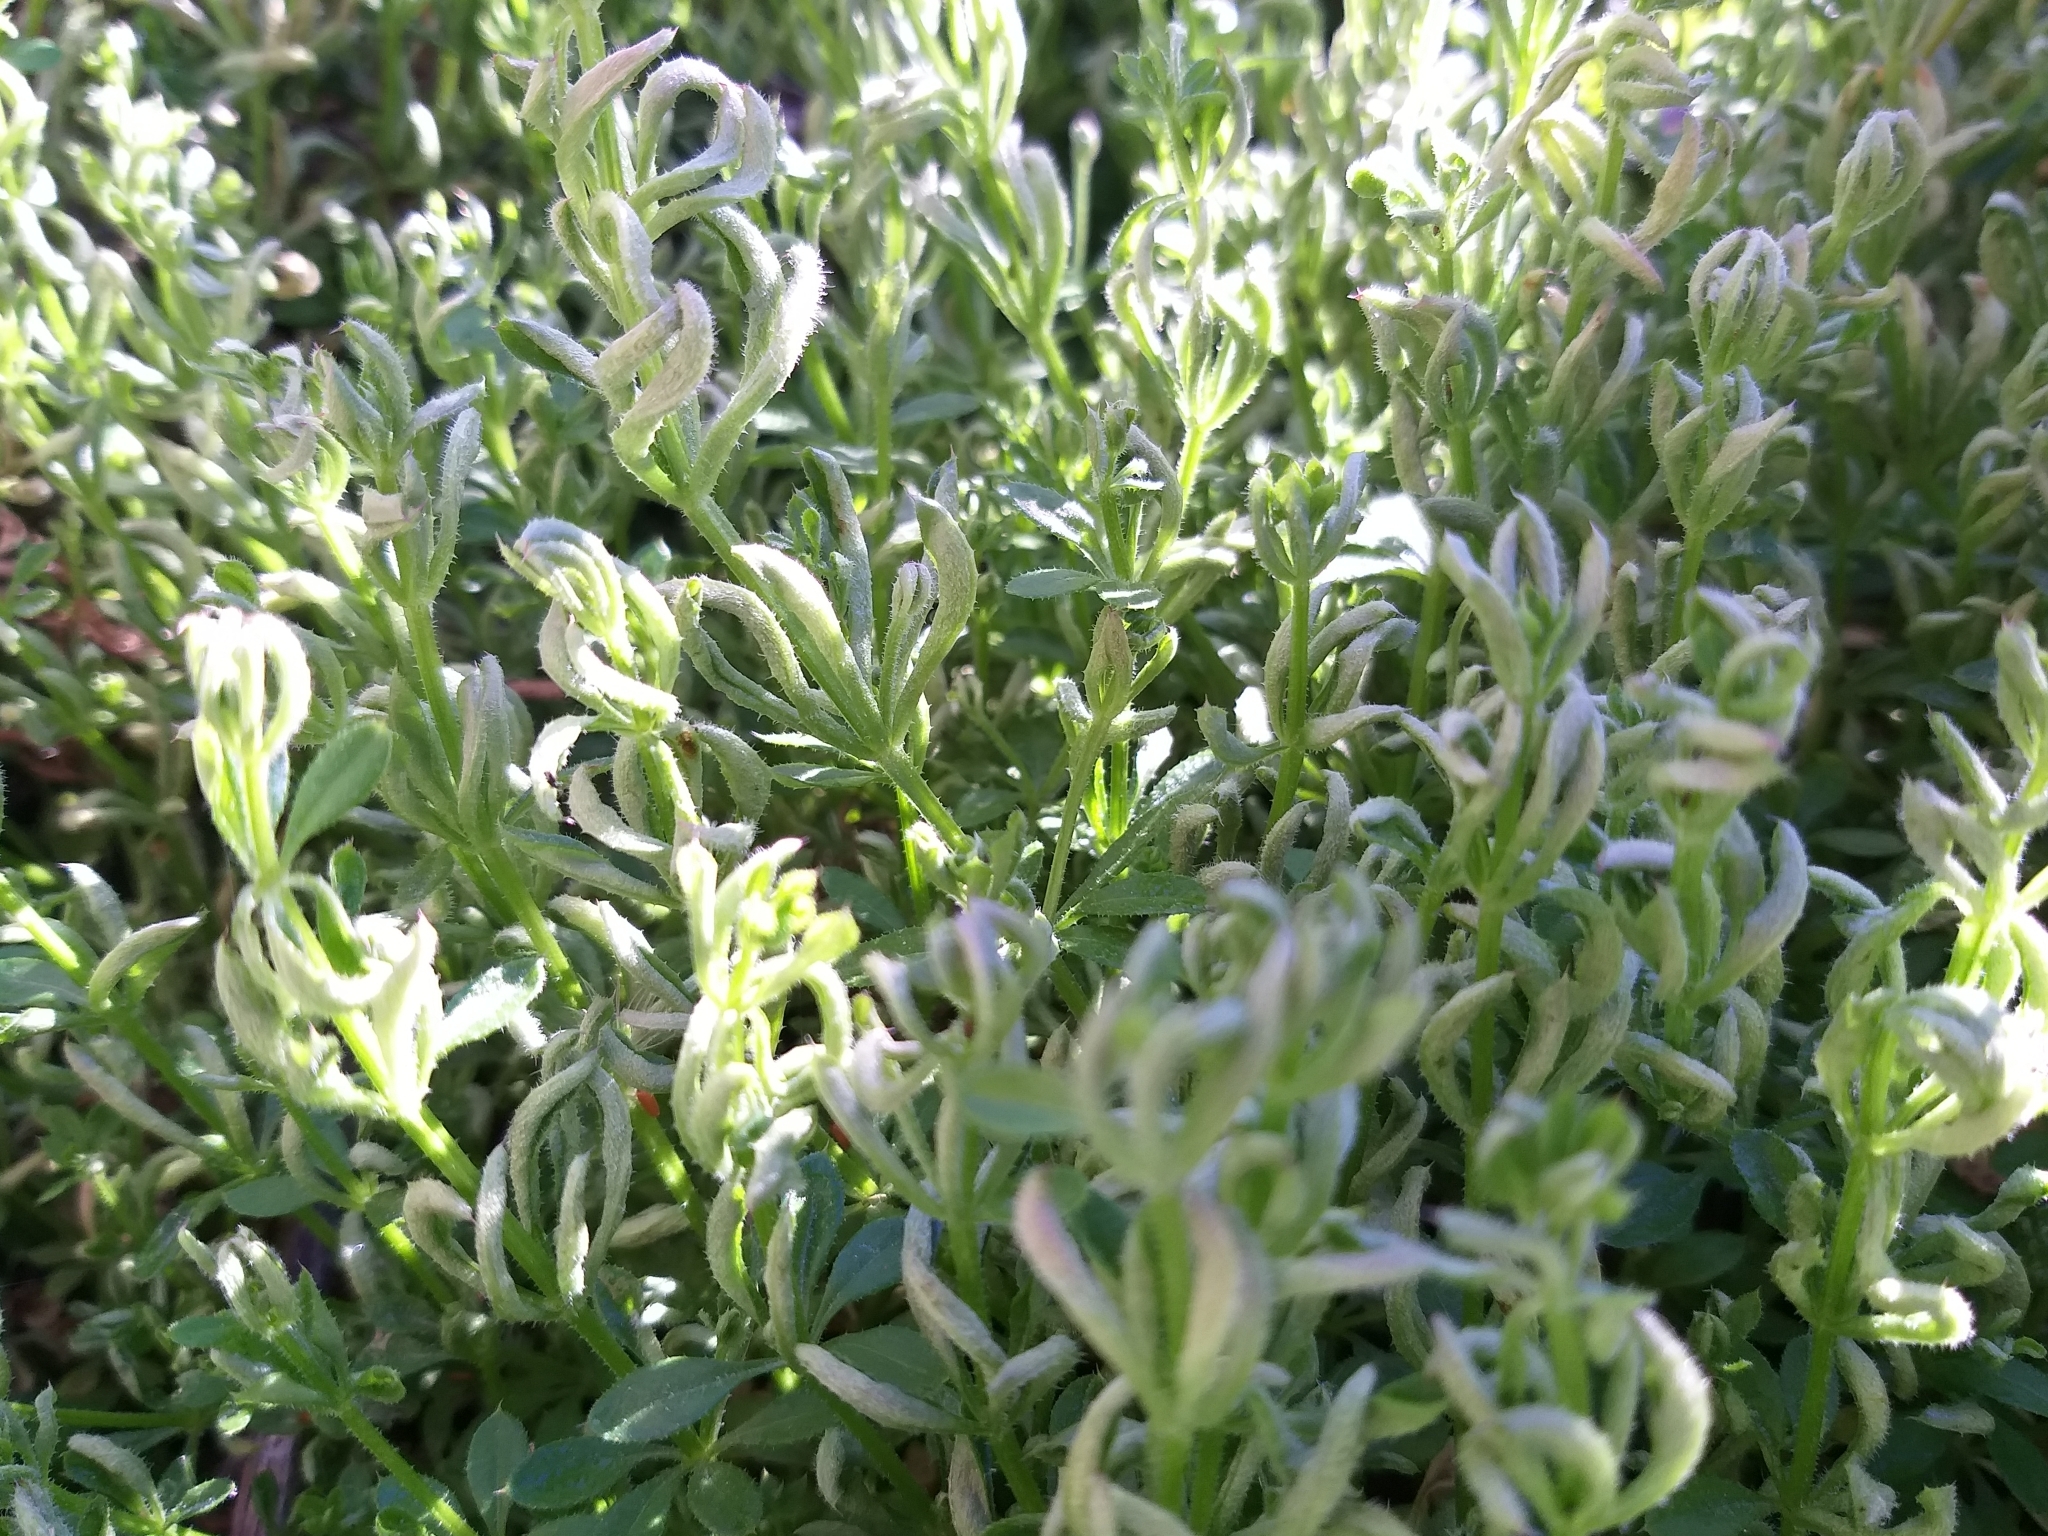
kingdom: Animalia
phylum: Arthropoda
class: Arachnida
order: Trombidiformes
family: Eriophyidae
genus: Cecidophyes
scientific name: Cecidophyes rouhollahi
